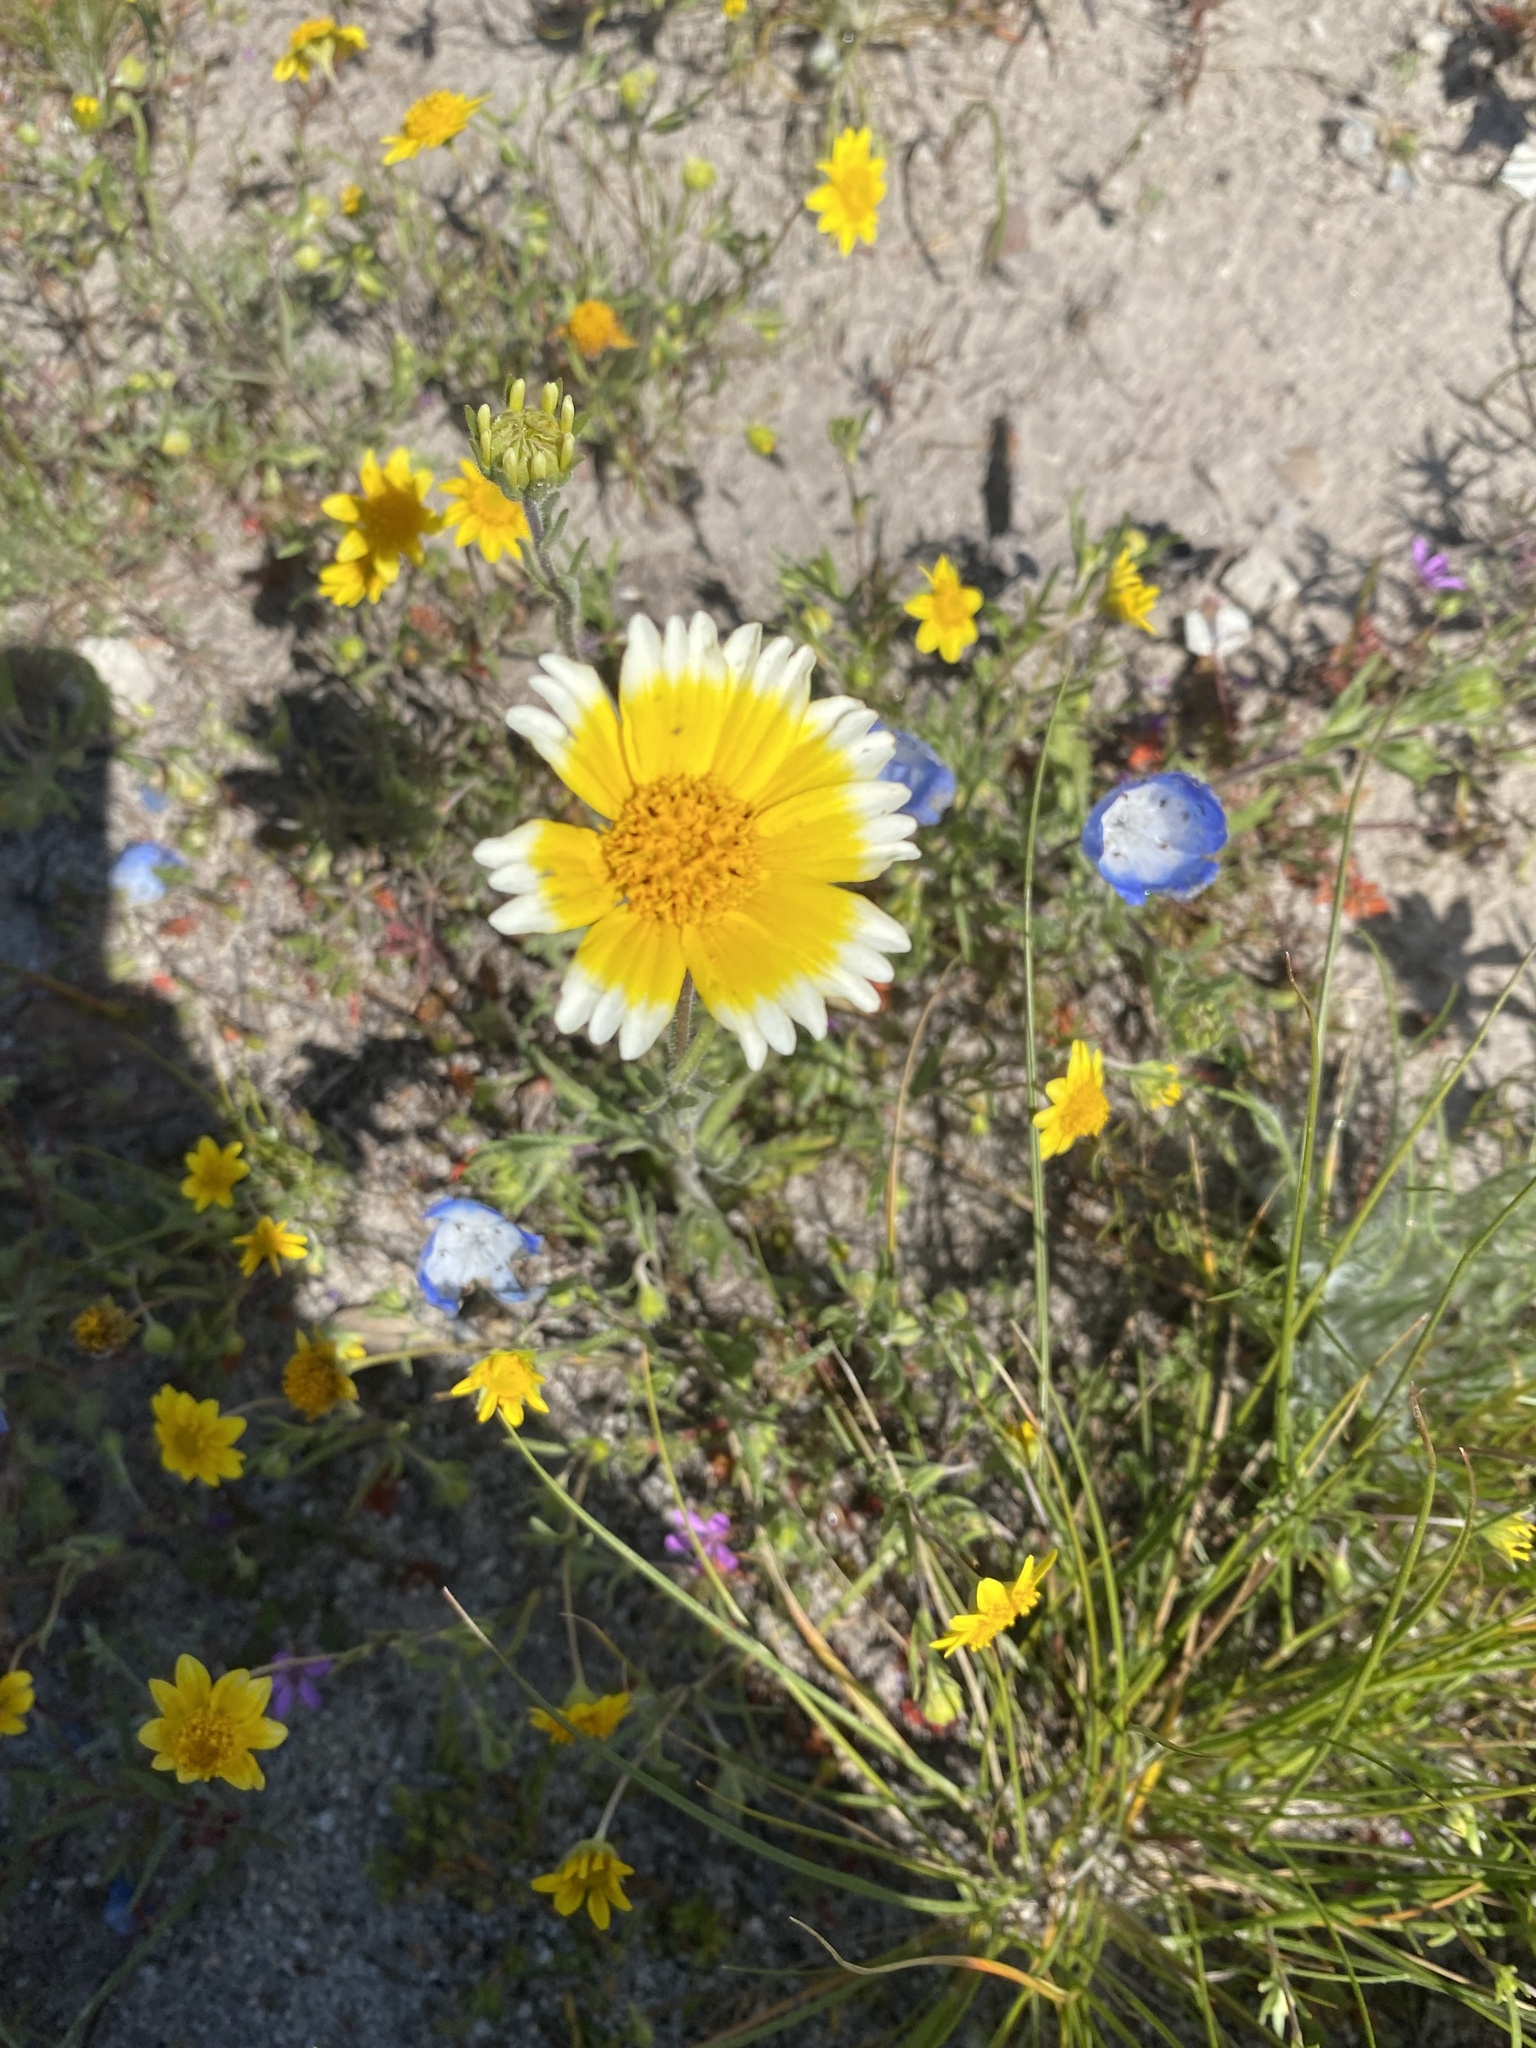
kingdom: Plantae
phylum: Tracheophyta
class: Magnoliopsida
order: Asterales
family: Asteraceae
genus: Layia
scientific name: Layia platyglossa
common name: Tidy-tips
